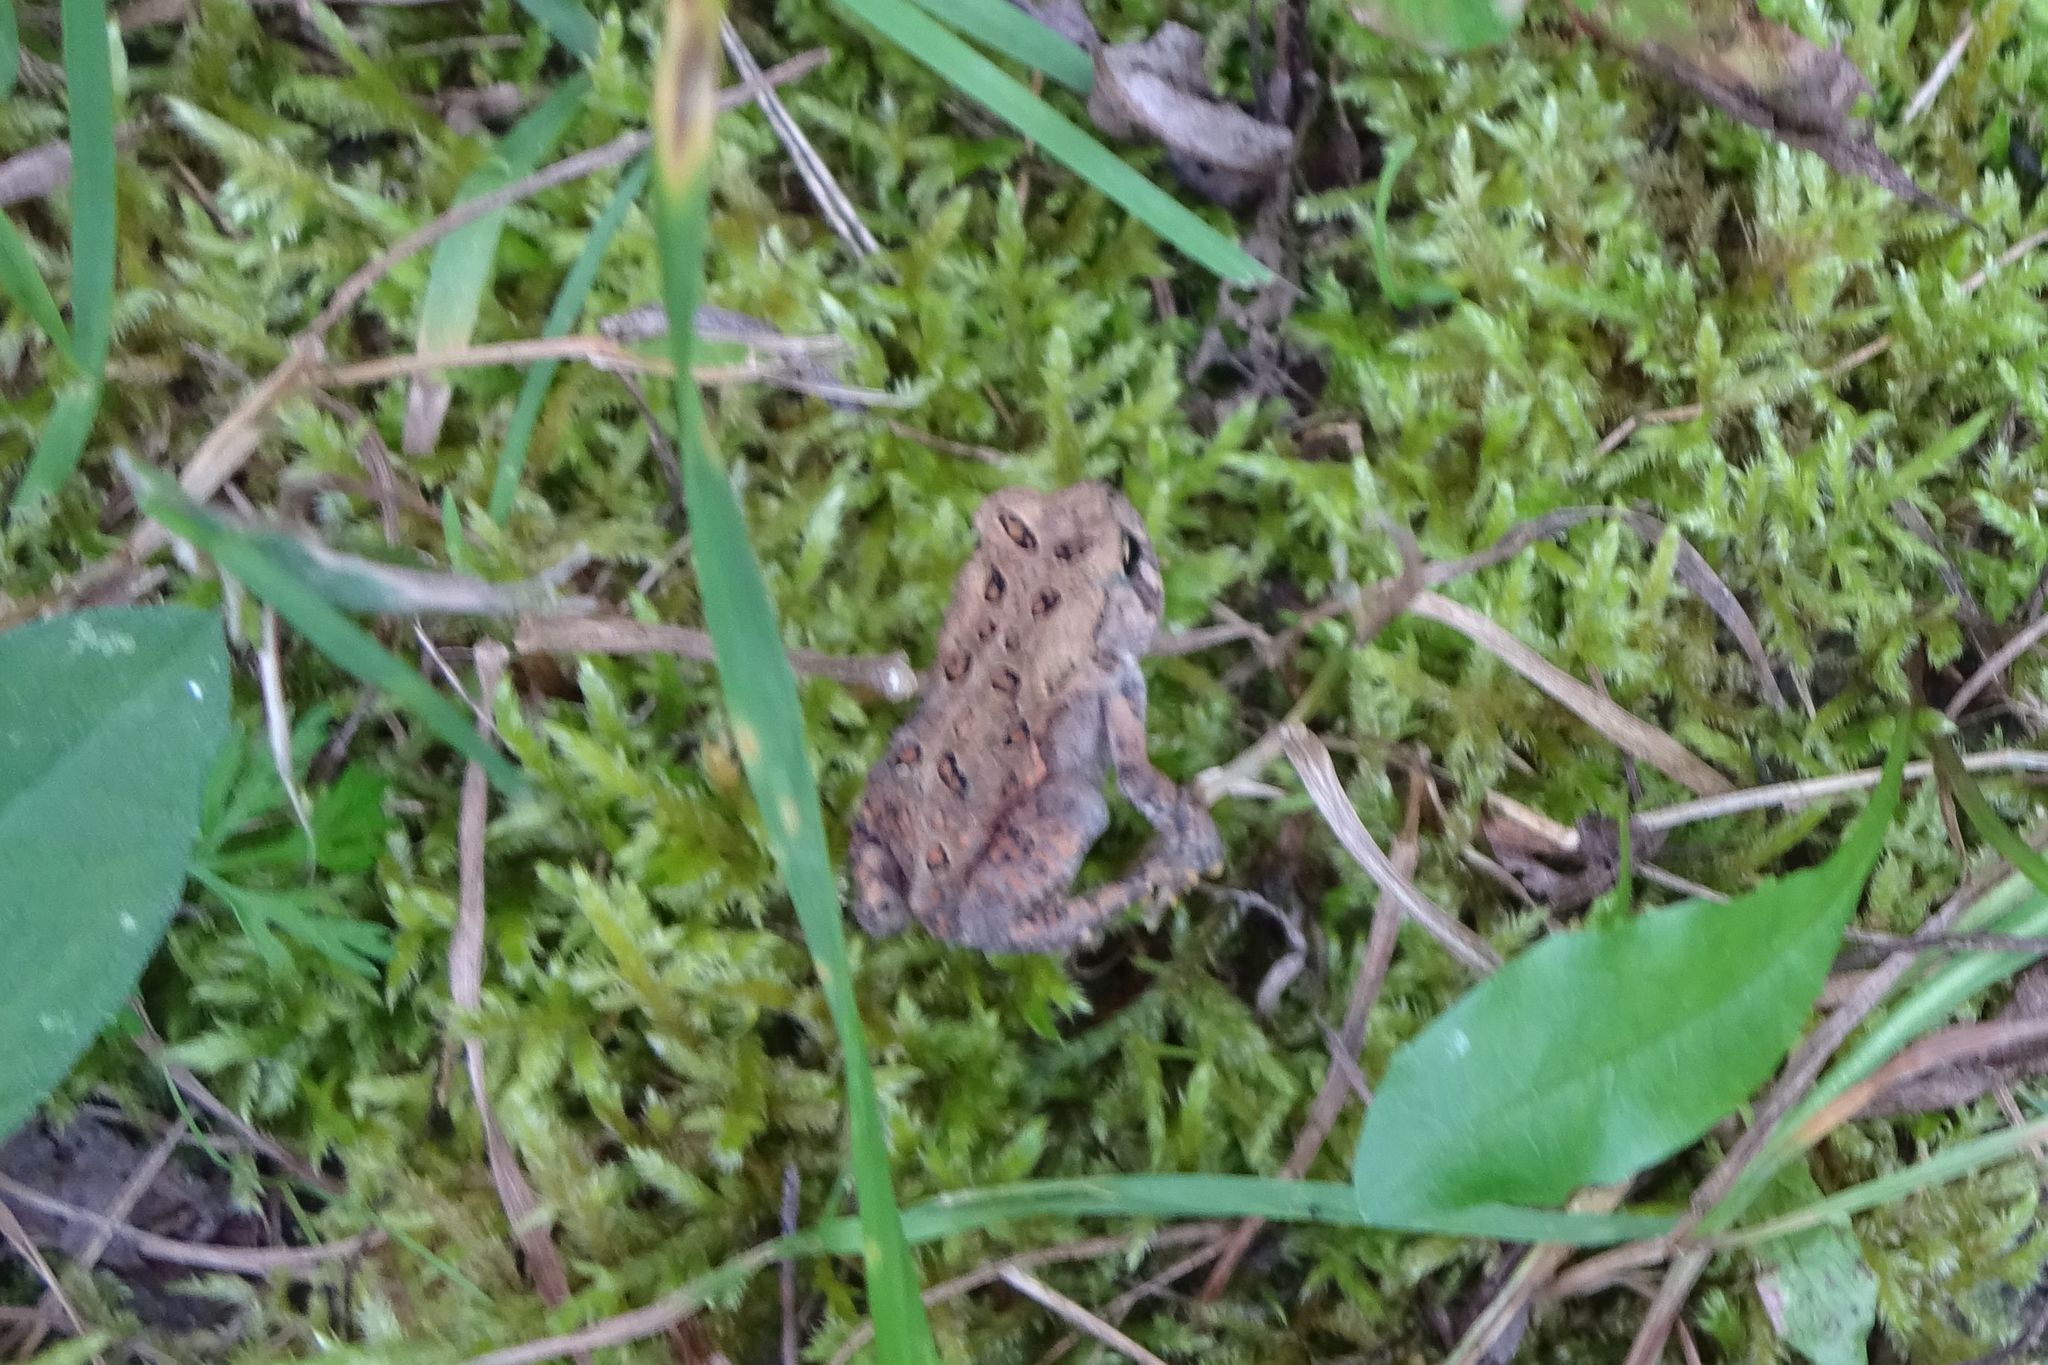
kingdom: Animalia
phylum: Chordata
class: Amphibia
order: Anura
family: Bufonidae
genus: Anaxyrus
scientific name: Anaxyrus americanus
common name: American toad
